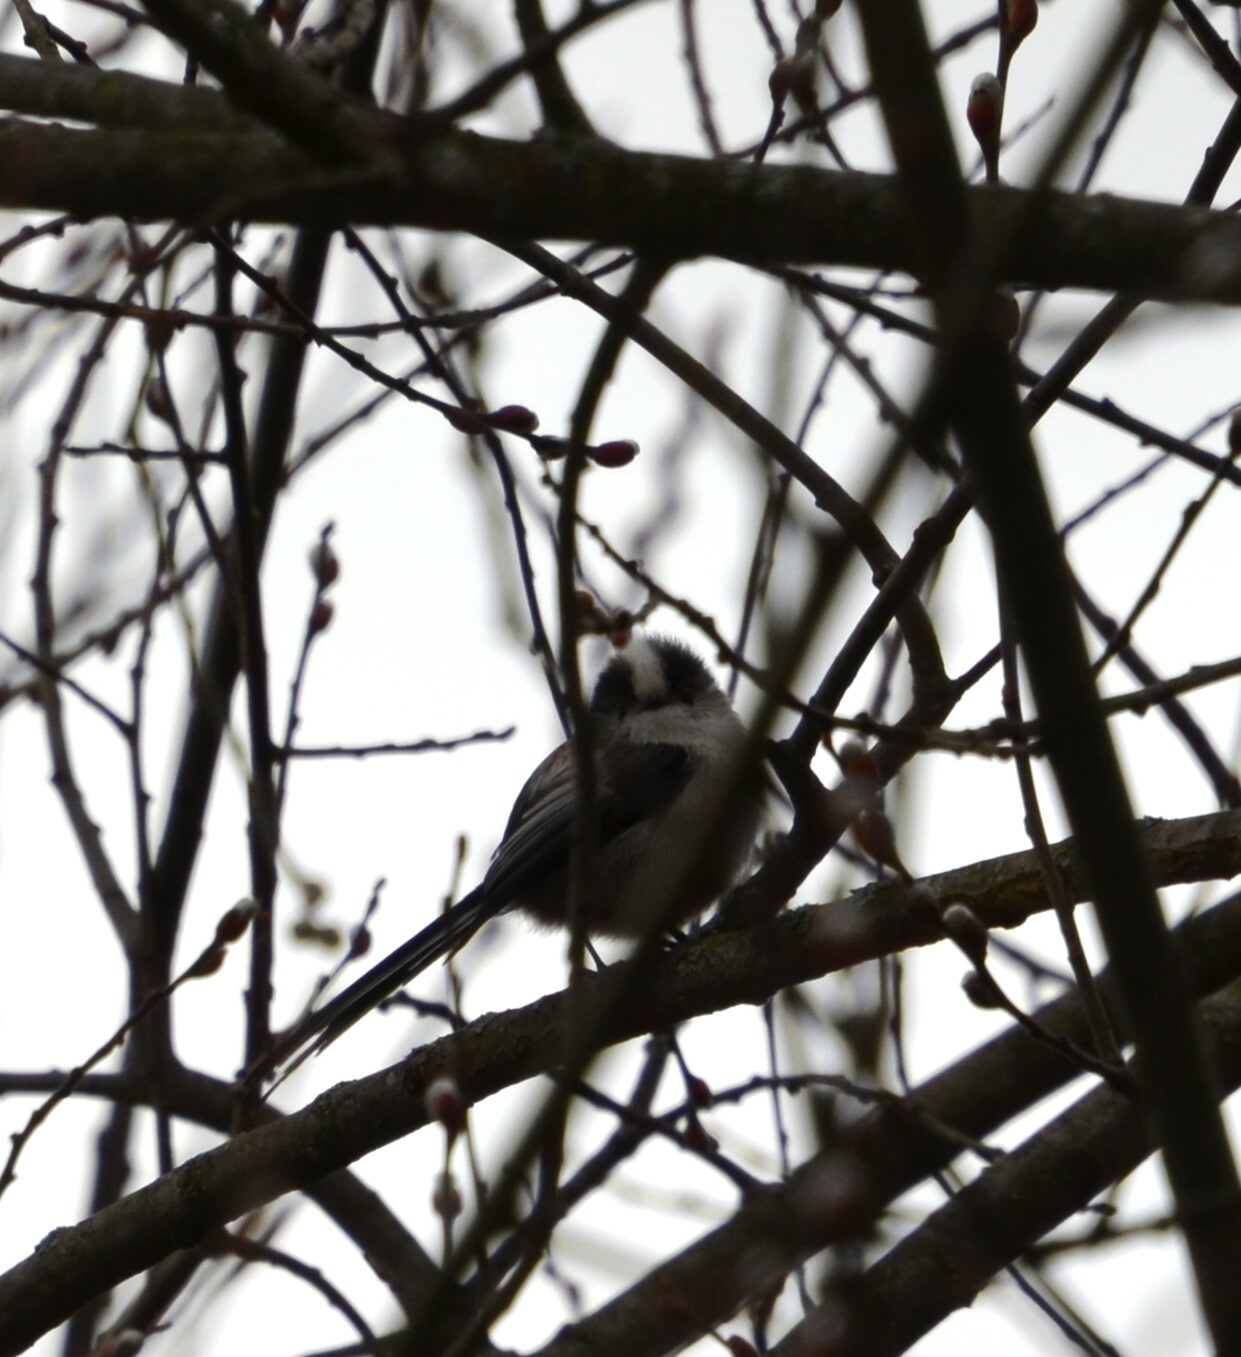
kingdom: Animalia
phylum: Chordata
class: Aves
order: Passeriformes
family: Aegithalidae
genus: Aegithalos
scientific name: Aegithalos caudatus
